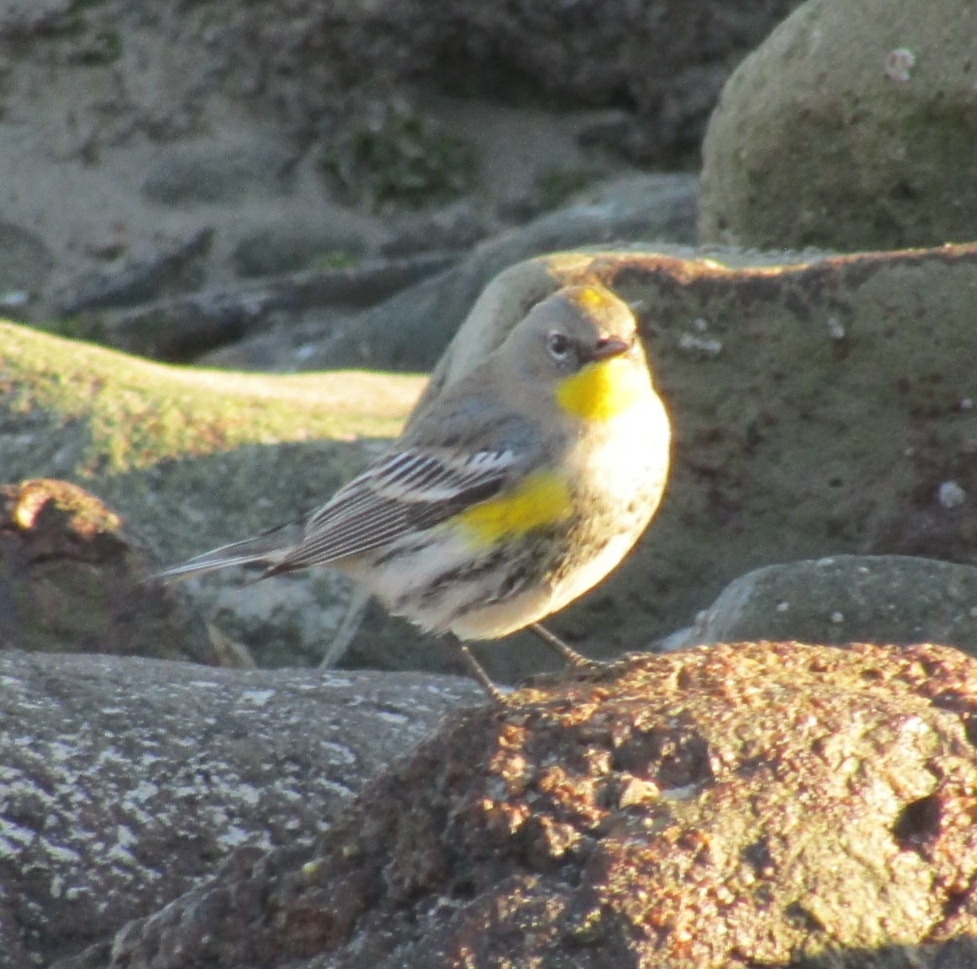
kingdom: Animalia
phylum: Chordata
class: Aves
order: Passeriformes
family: Parulidae
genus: Setophaga
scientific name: Setophaga coronata
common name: Myrtle warbler
